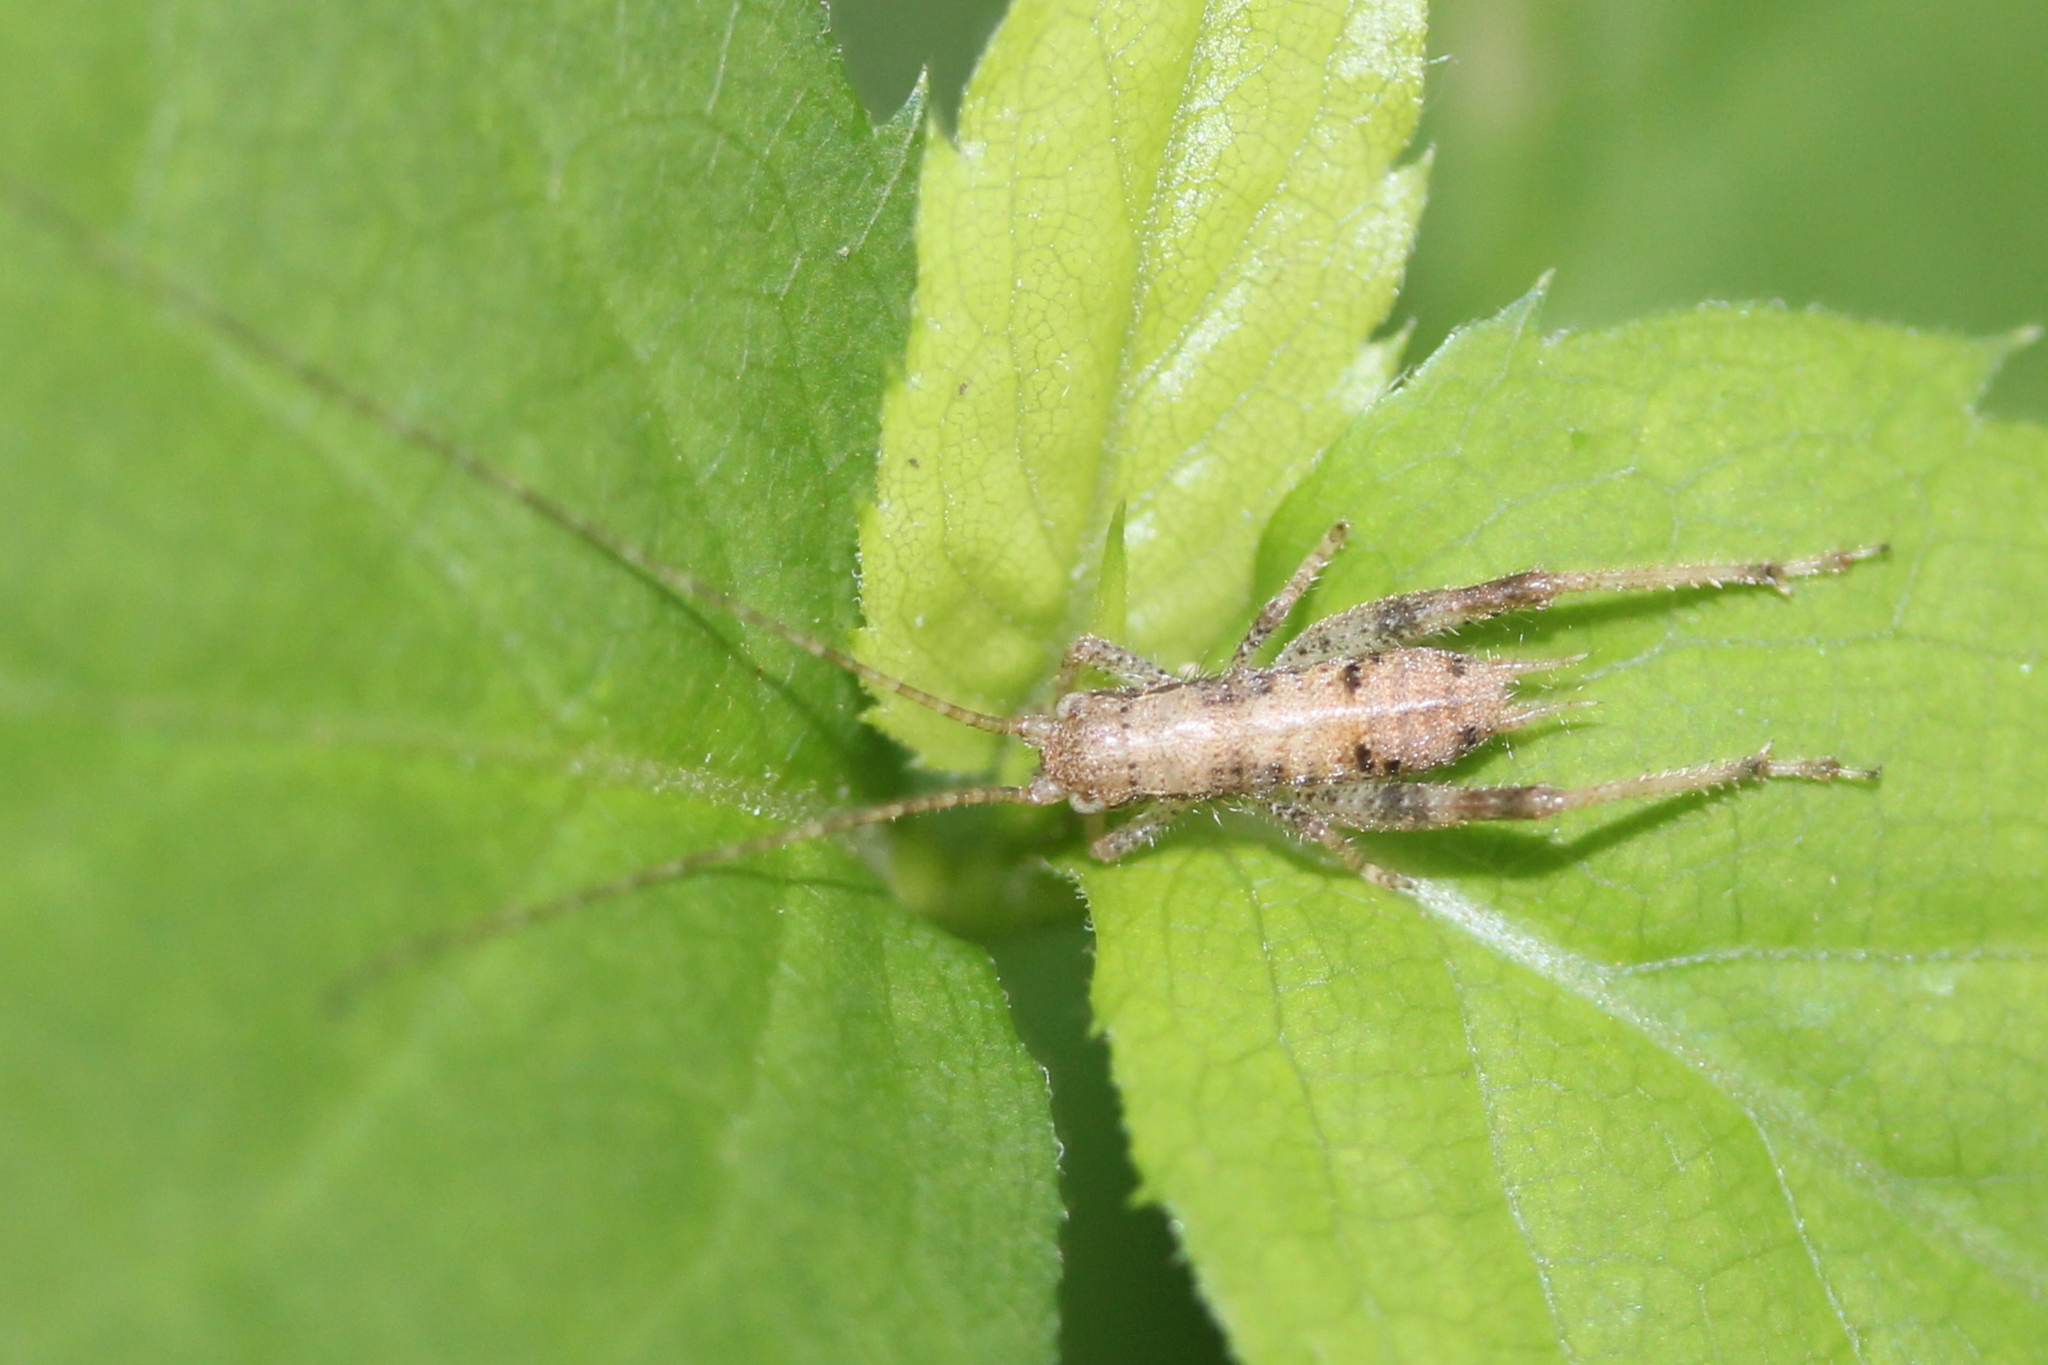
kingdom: Animalia
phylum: Arthropoda
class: Insecta
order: Orthoptera
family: Gryllidae
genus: Hapithus
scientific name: Hapithus saltator
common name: Jumping bush cricket
